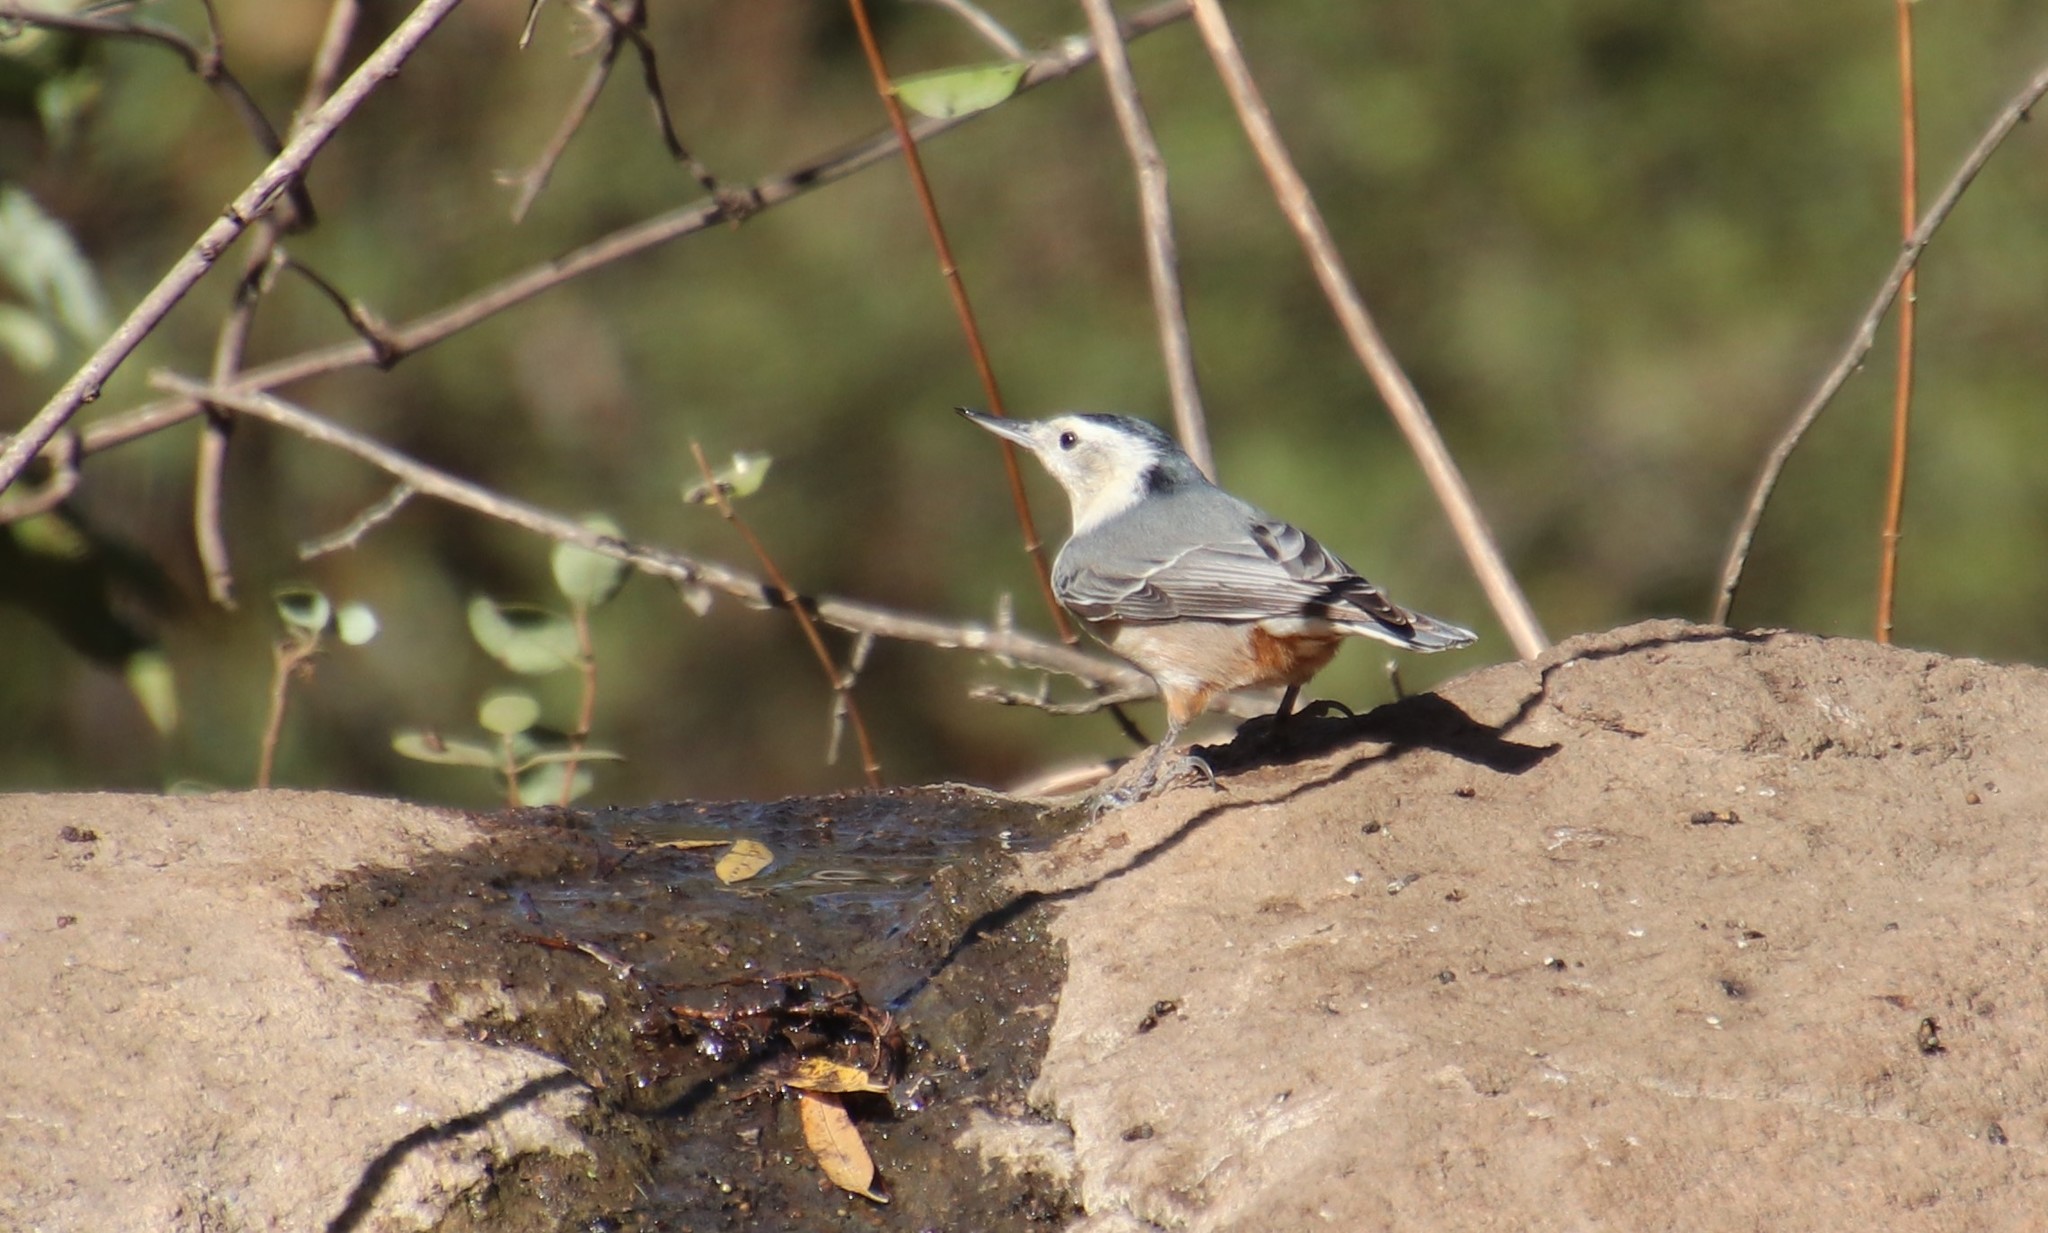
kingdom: Animalia
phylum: Chordata
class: Aves
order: Passeriformes
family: Sittidae
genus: Sitta
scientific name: Sitta carolinensis
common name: White-breasted nuthatch
